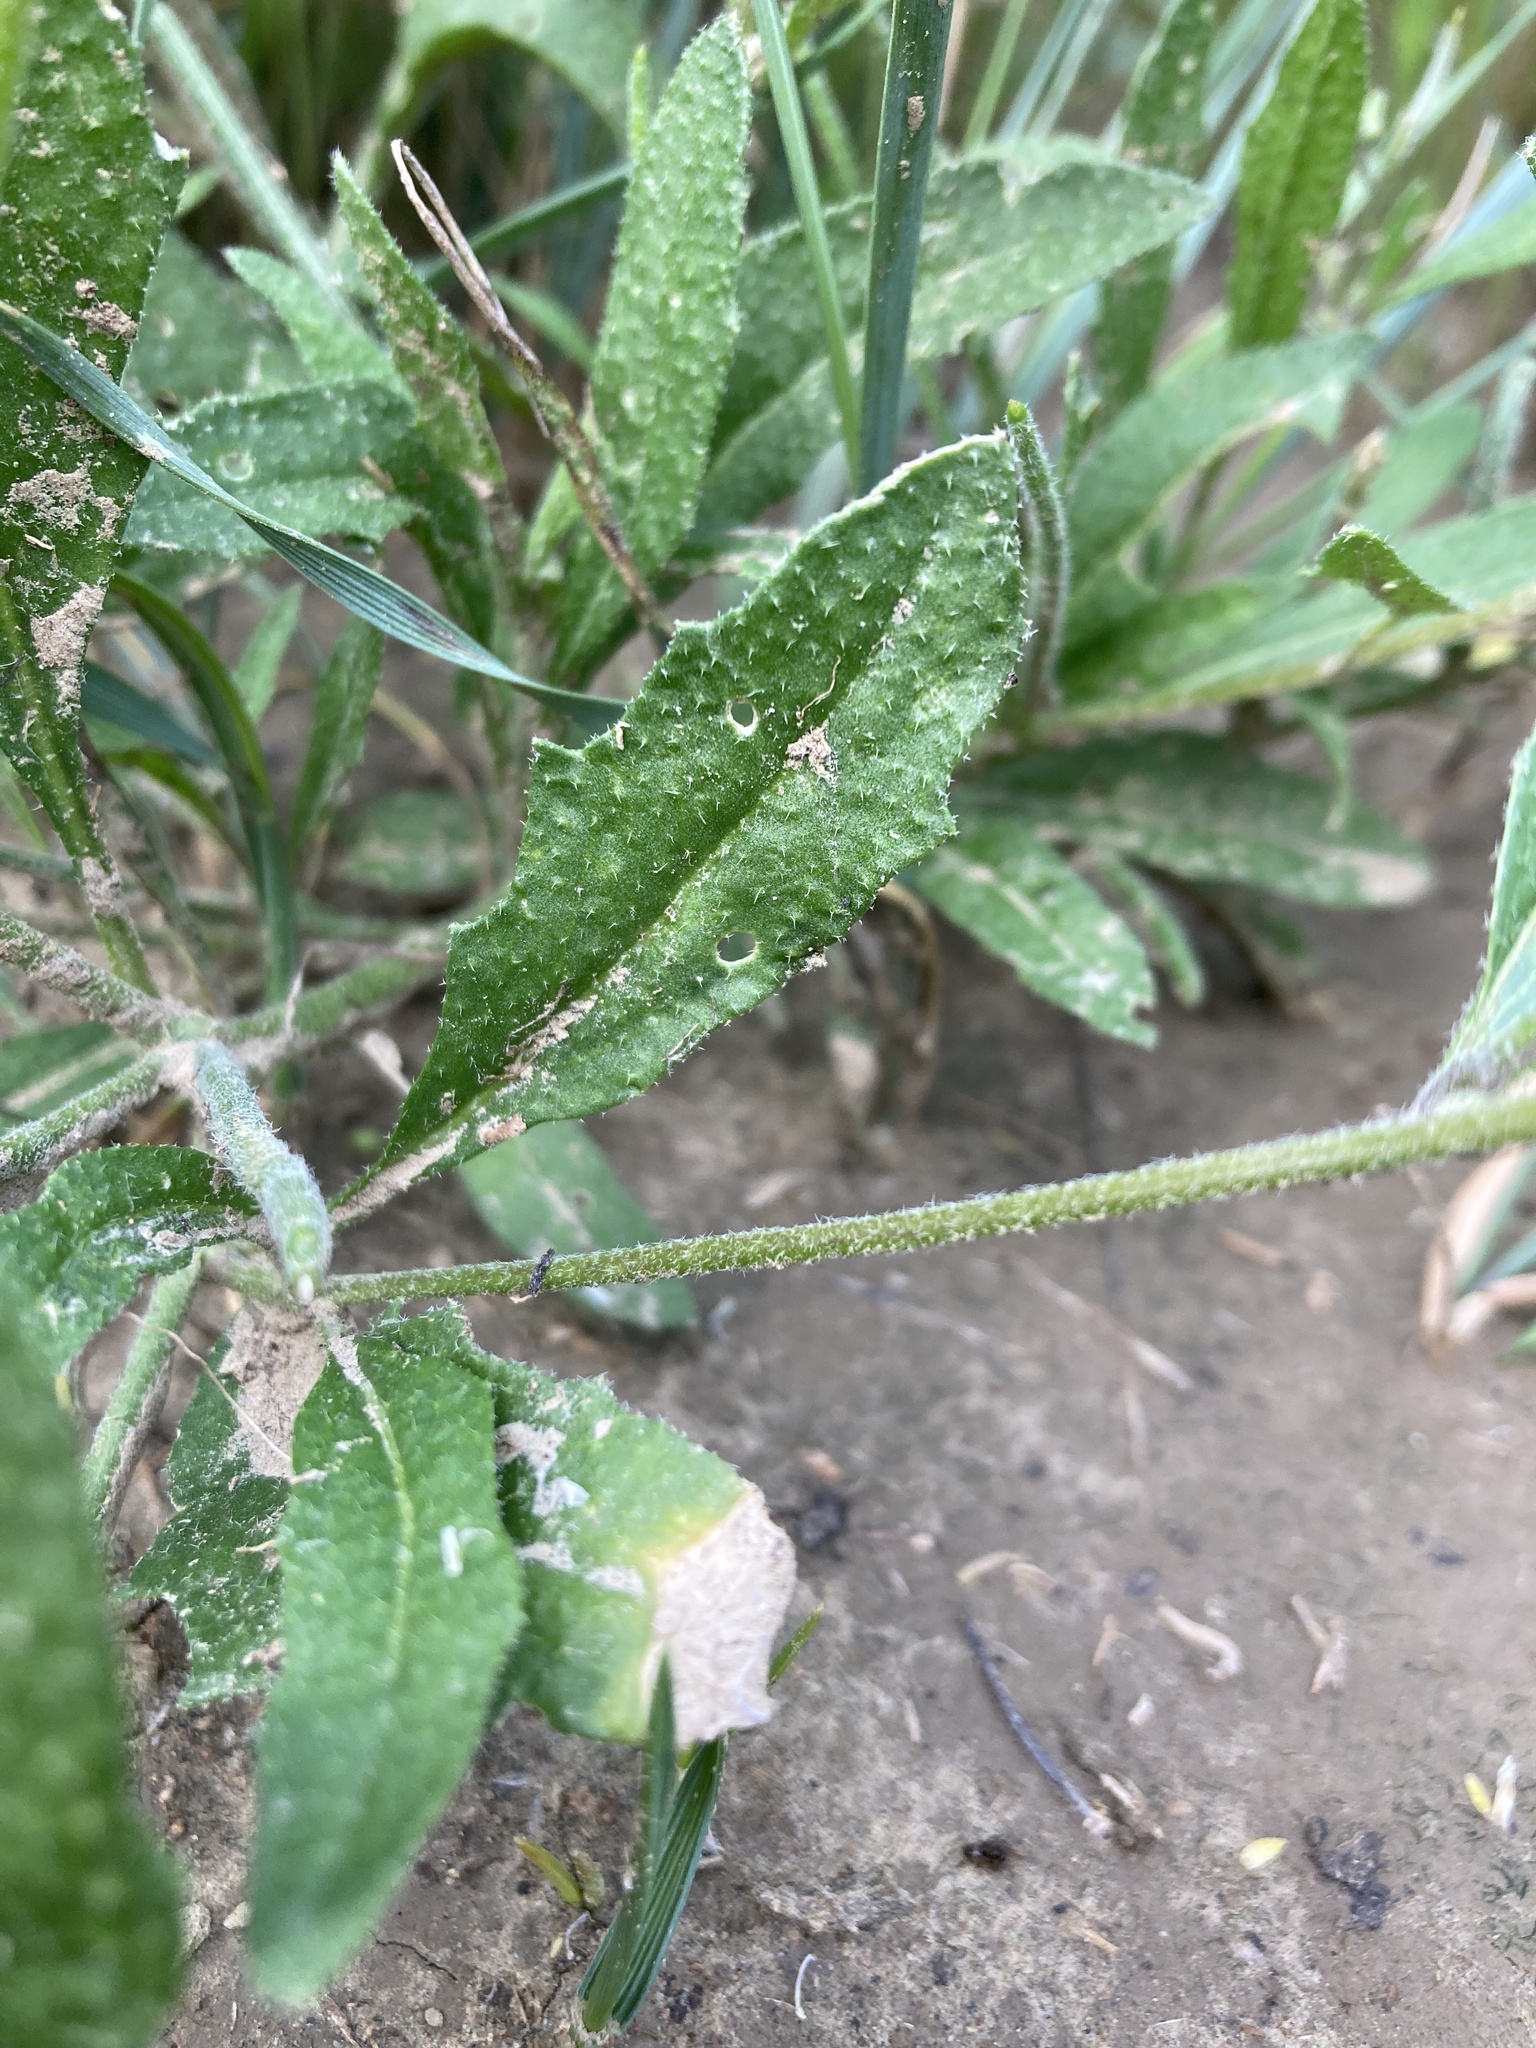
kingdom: Plantae
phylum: Tracheophyta
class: Magnoliopsida
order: Brassicales
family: Brassicaceae
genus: Strigosella
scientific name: Strigosella africana
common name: African mustard
